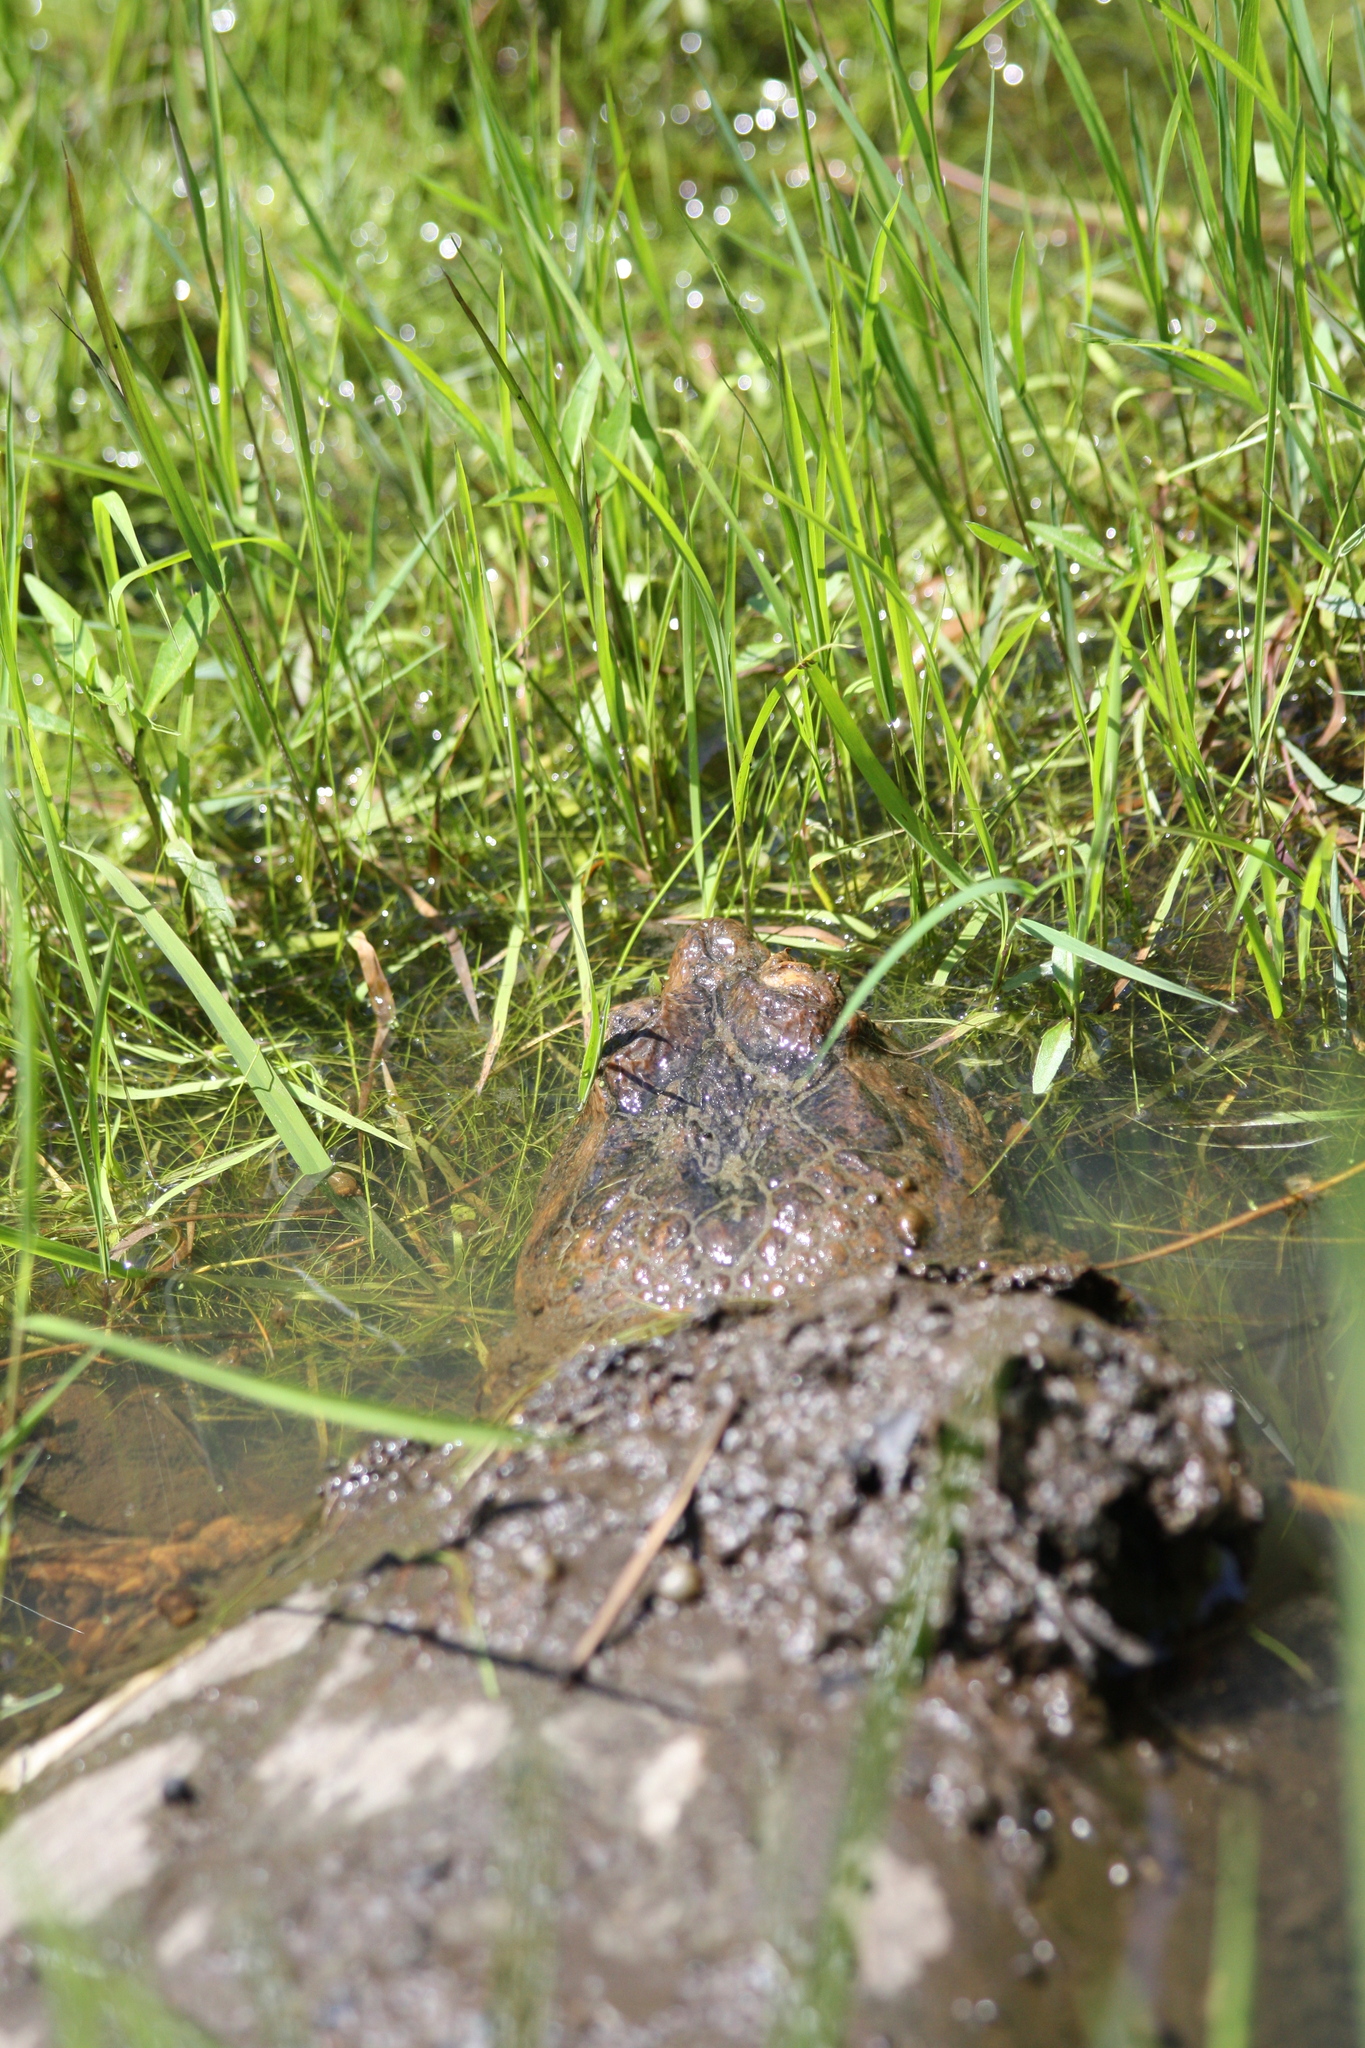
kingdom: Animalia
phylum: Chordata
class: Testudines
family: Chelydridae
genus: Chelydra
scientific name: Chelydra serpentina
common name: Common snapping turtle
